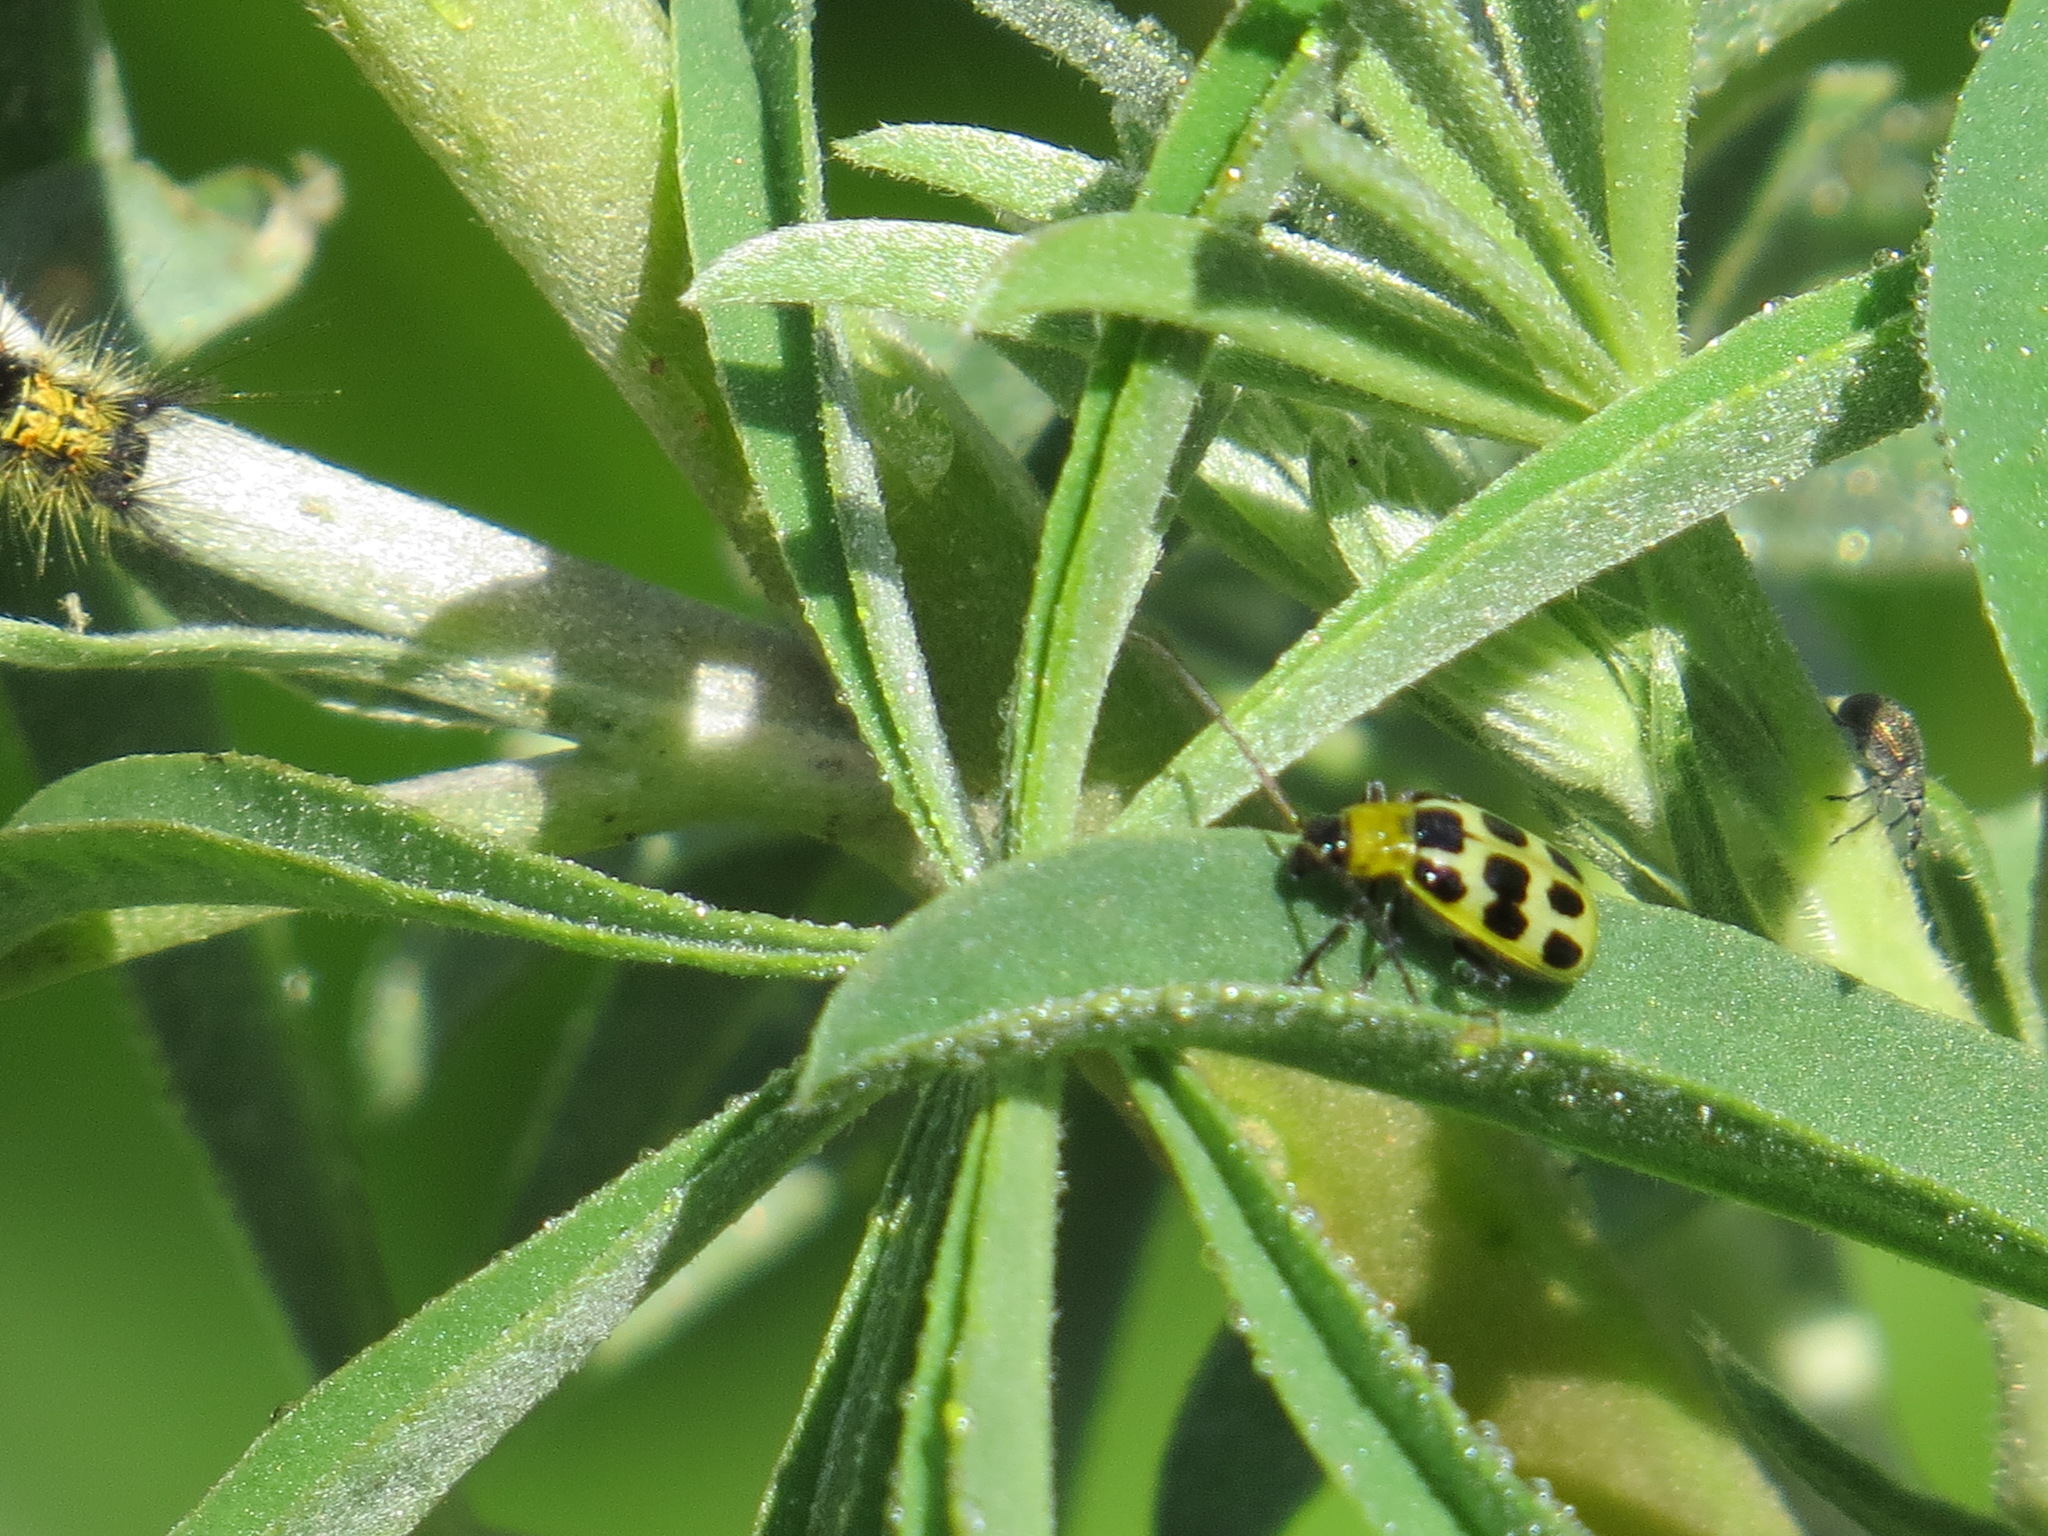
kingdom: Animalia
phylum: Arthropoda
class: Insecta
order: Coleoptera
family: Chrysomelidae
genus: Diabrotica
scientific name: Diabrotica undecimpunctata
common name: Spotted cucumber beetle
